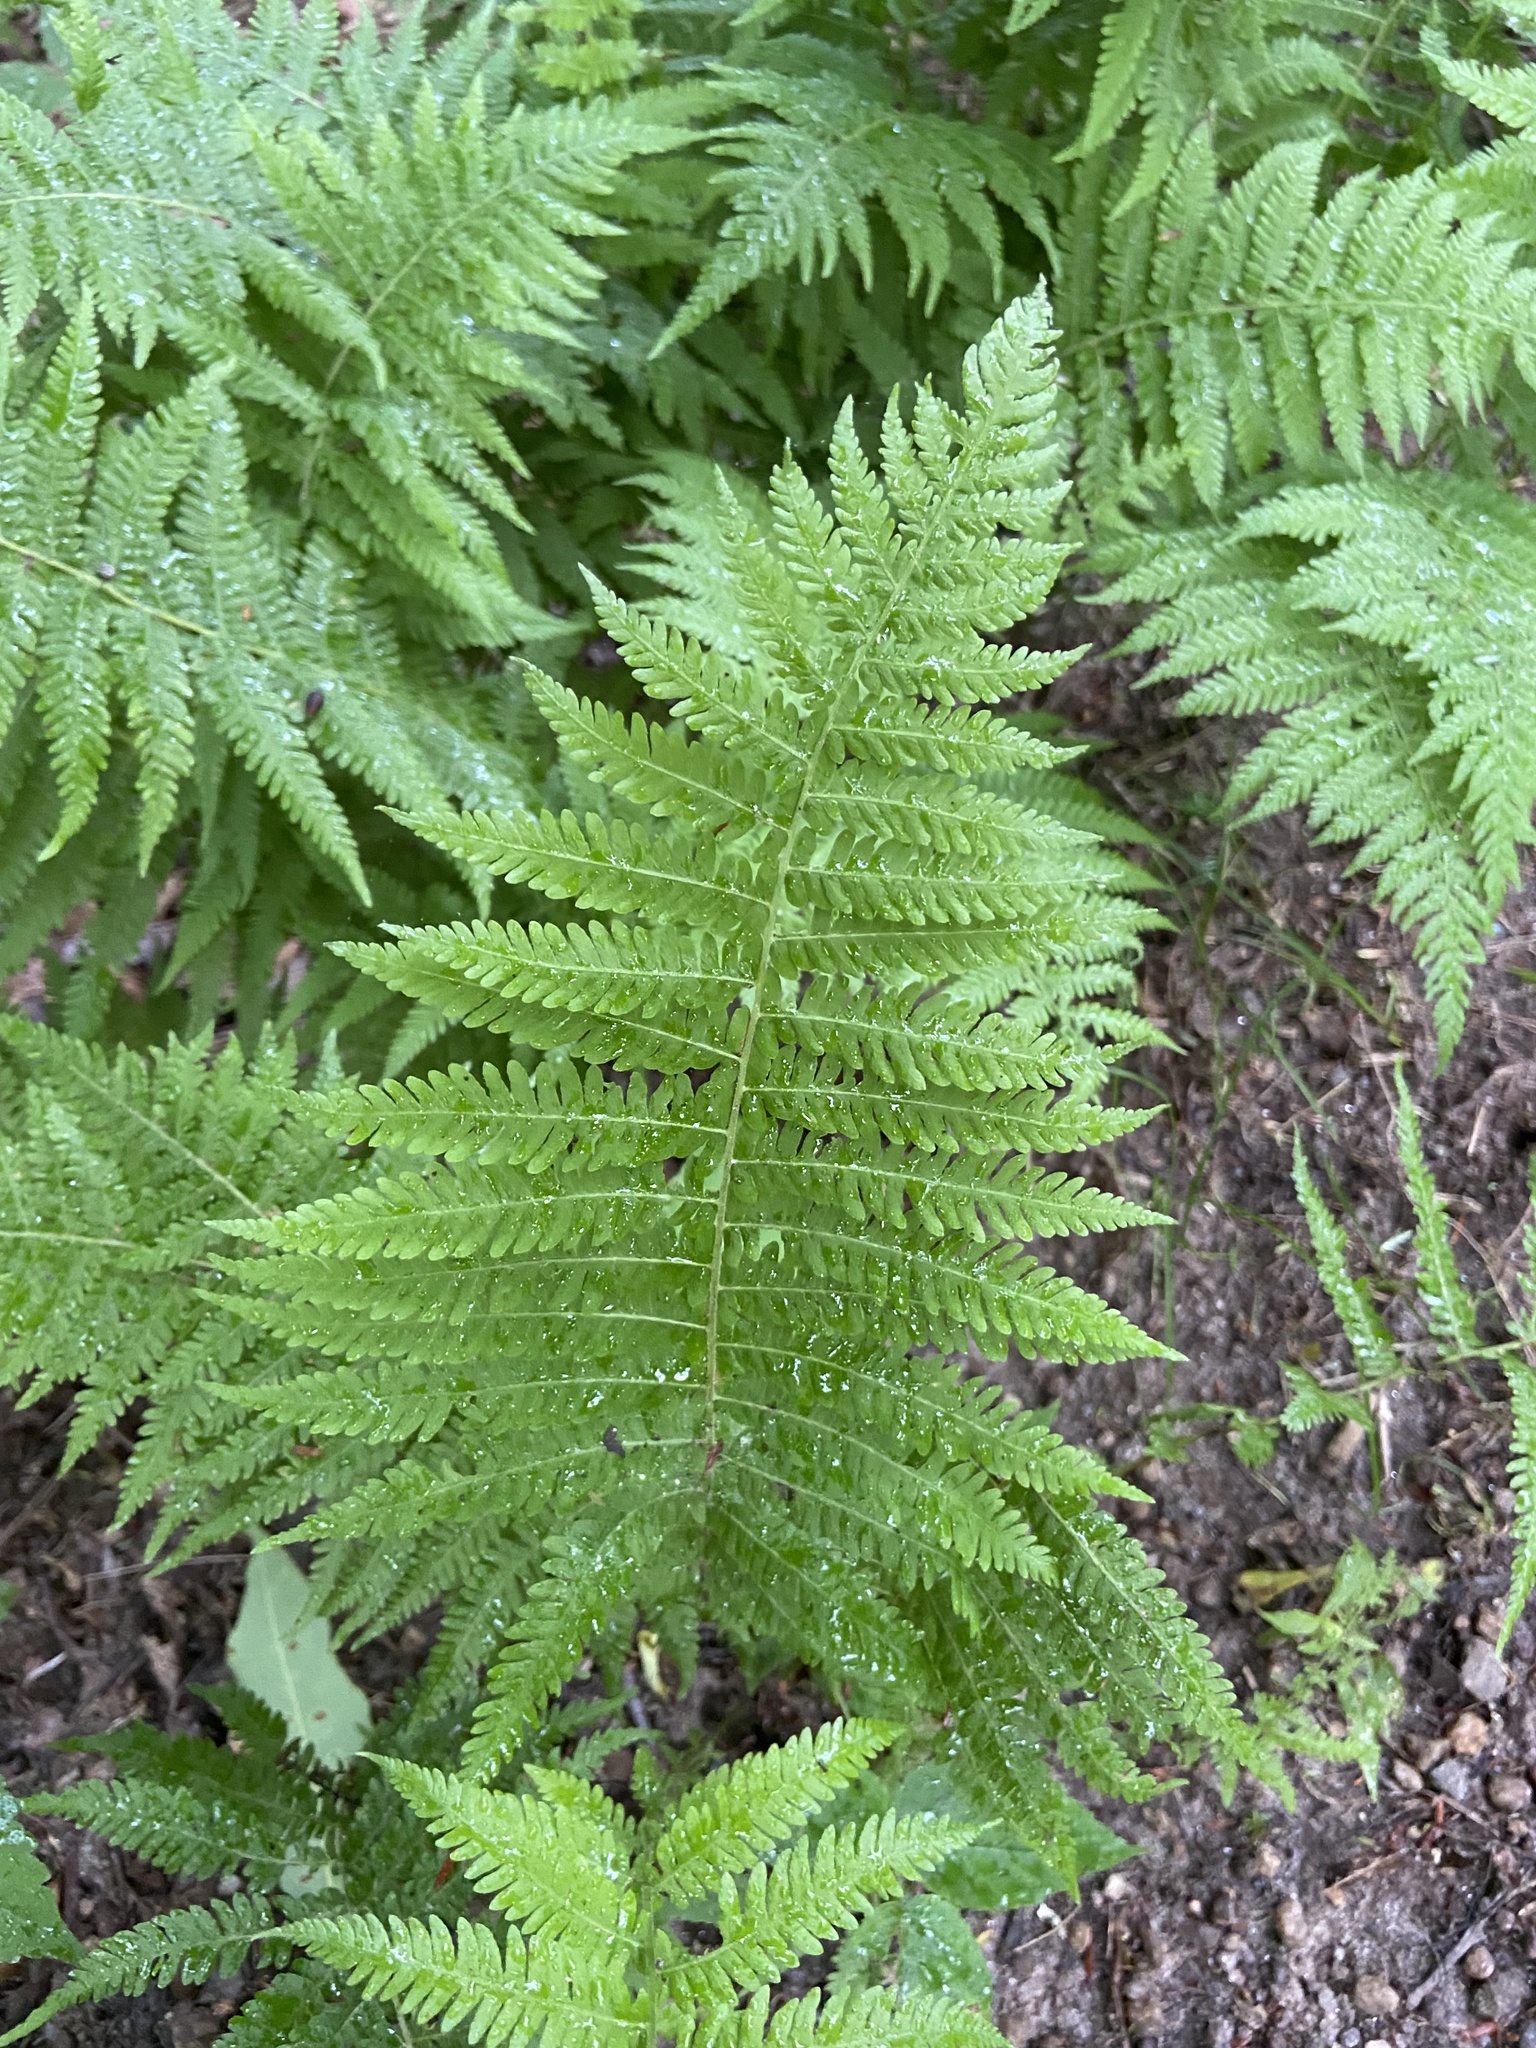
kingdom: Plantae
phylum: Tracheophyta
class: Polypodiopsida
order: Polypodiales
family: Thelypteridaceae
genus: Amauropelta
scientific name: Amauropelta noveboracensis
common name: New york fern
